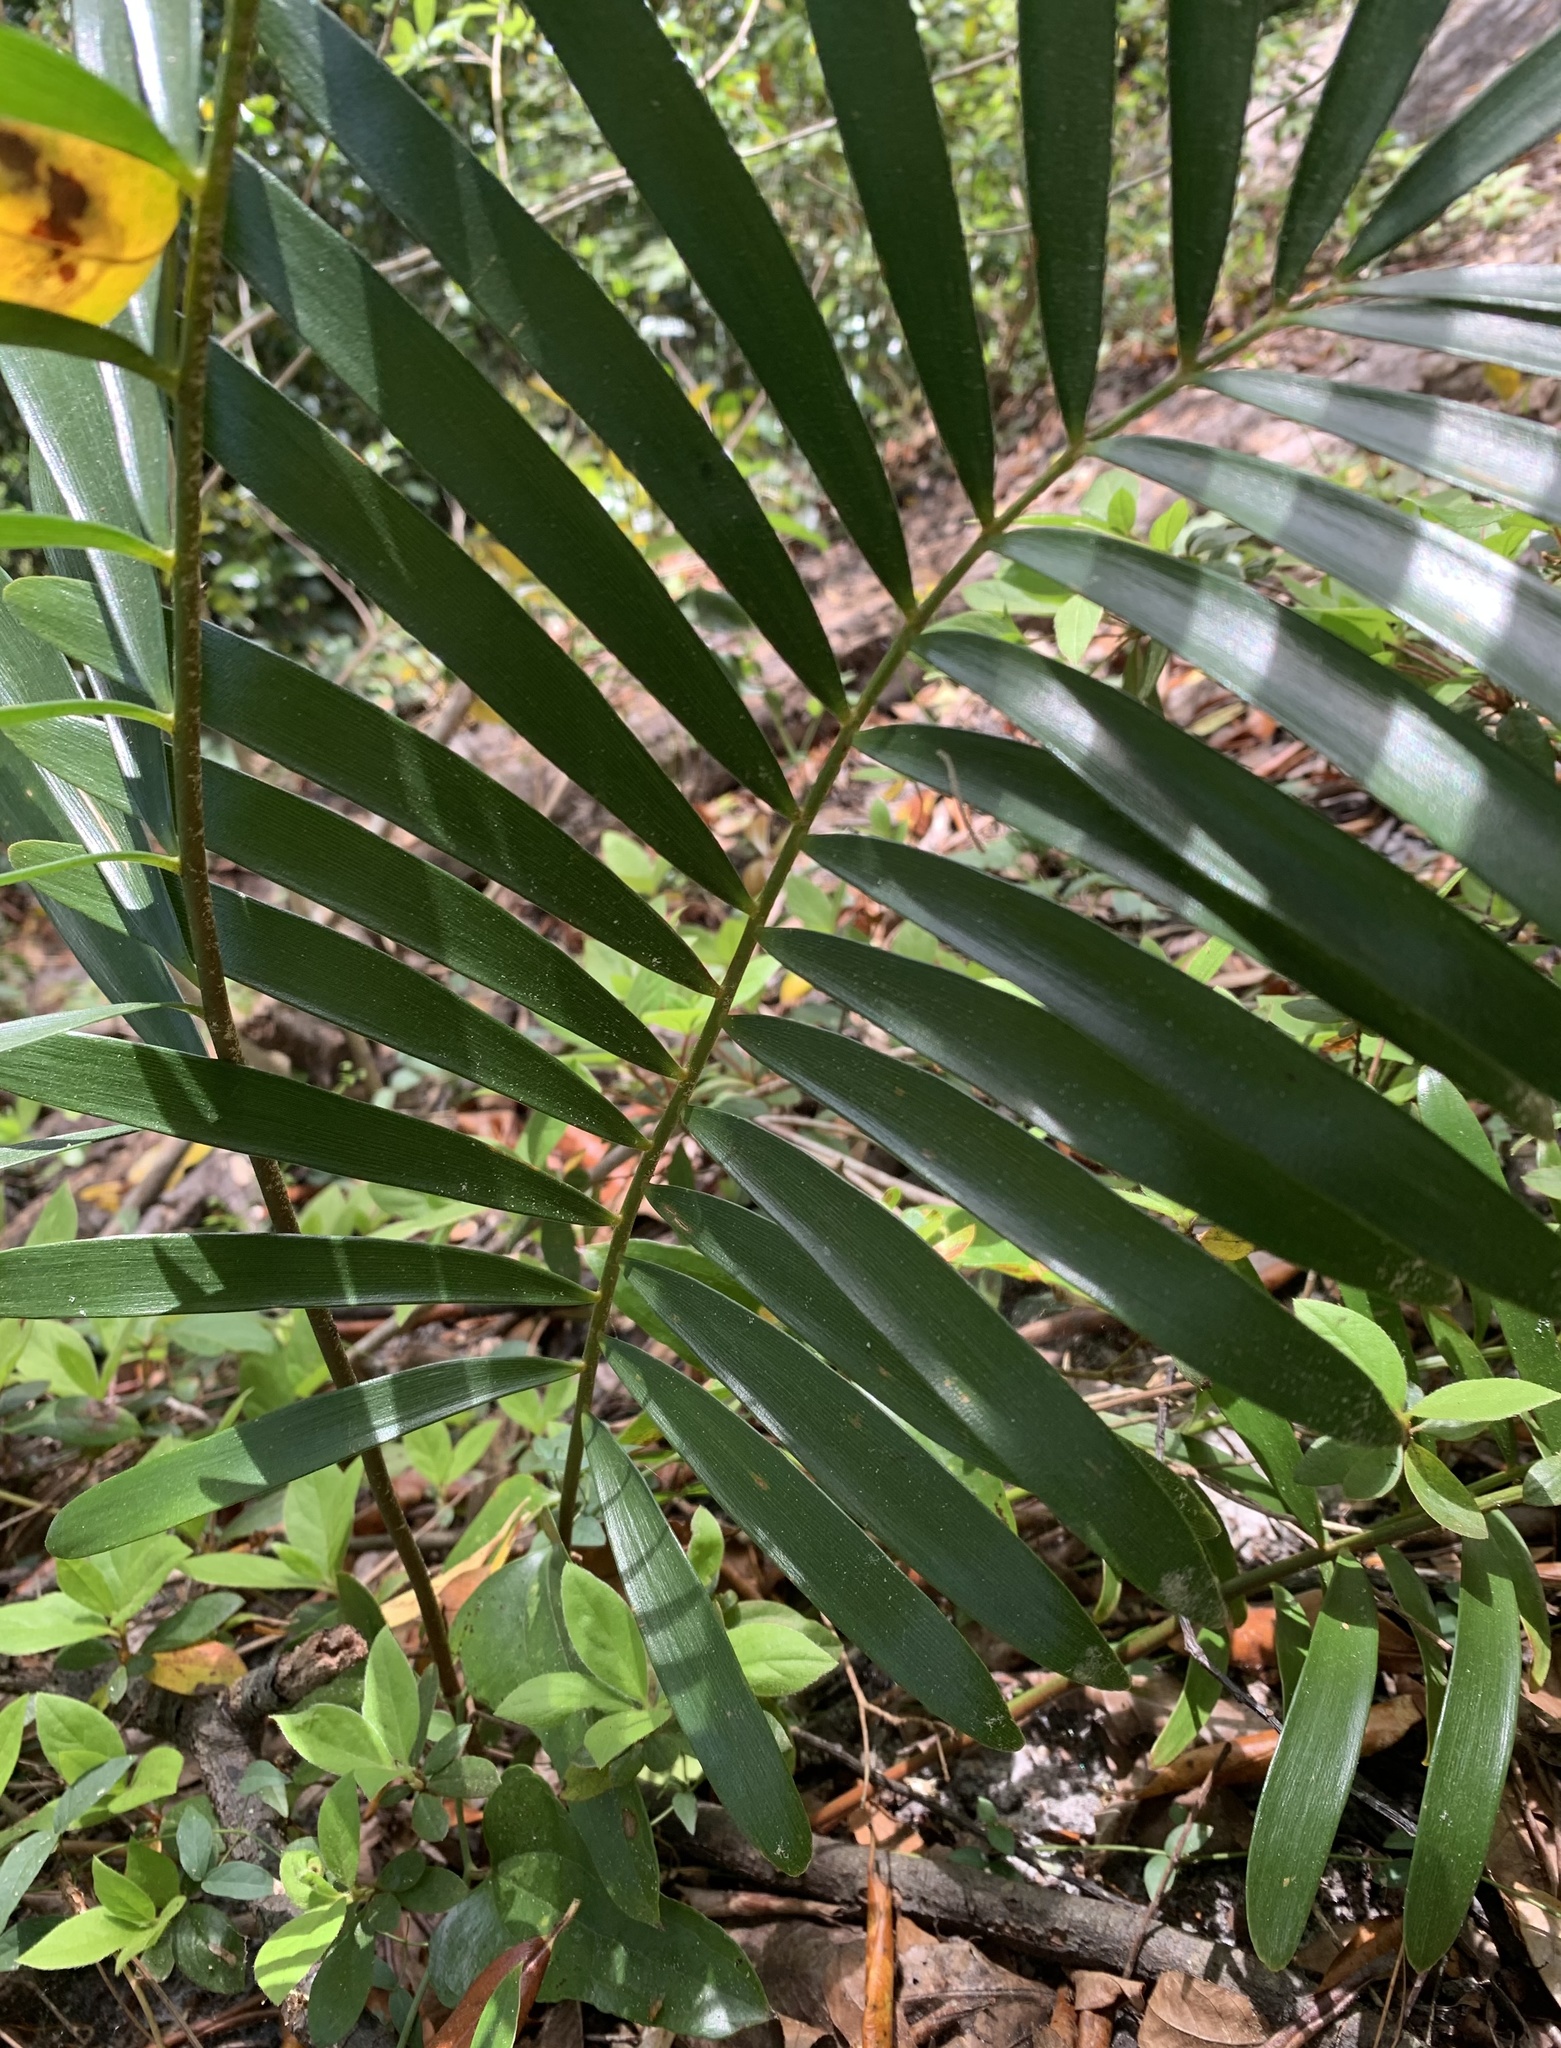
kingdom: Plantae
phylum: Tracheophyta
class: Cycadopsida
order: Cycadales
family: Zamiaceae
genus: Zamia
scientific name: Zamia integrifolia
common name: Florida arrowroot
